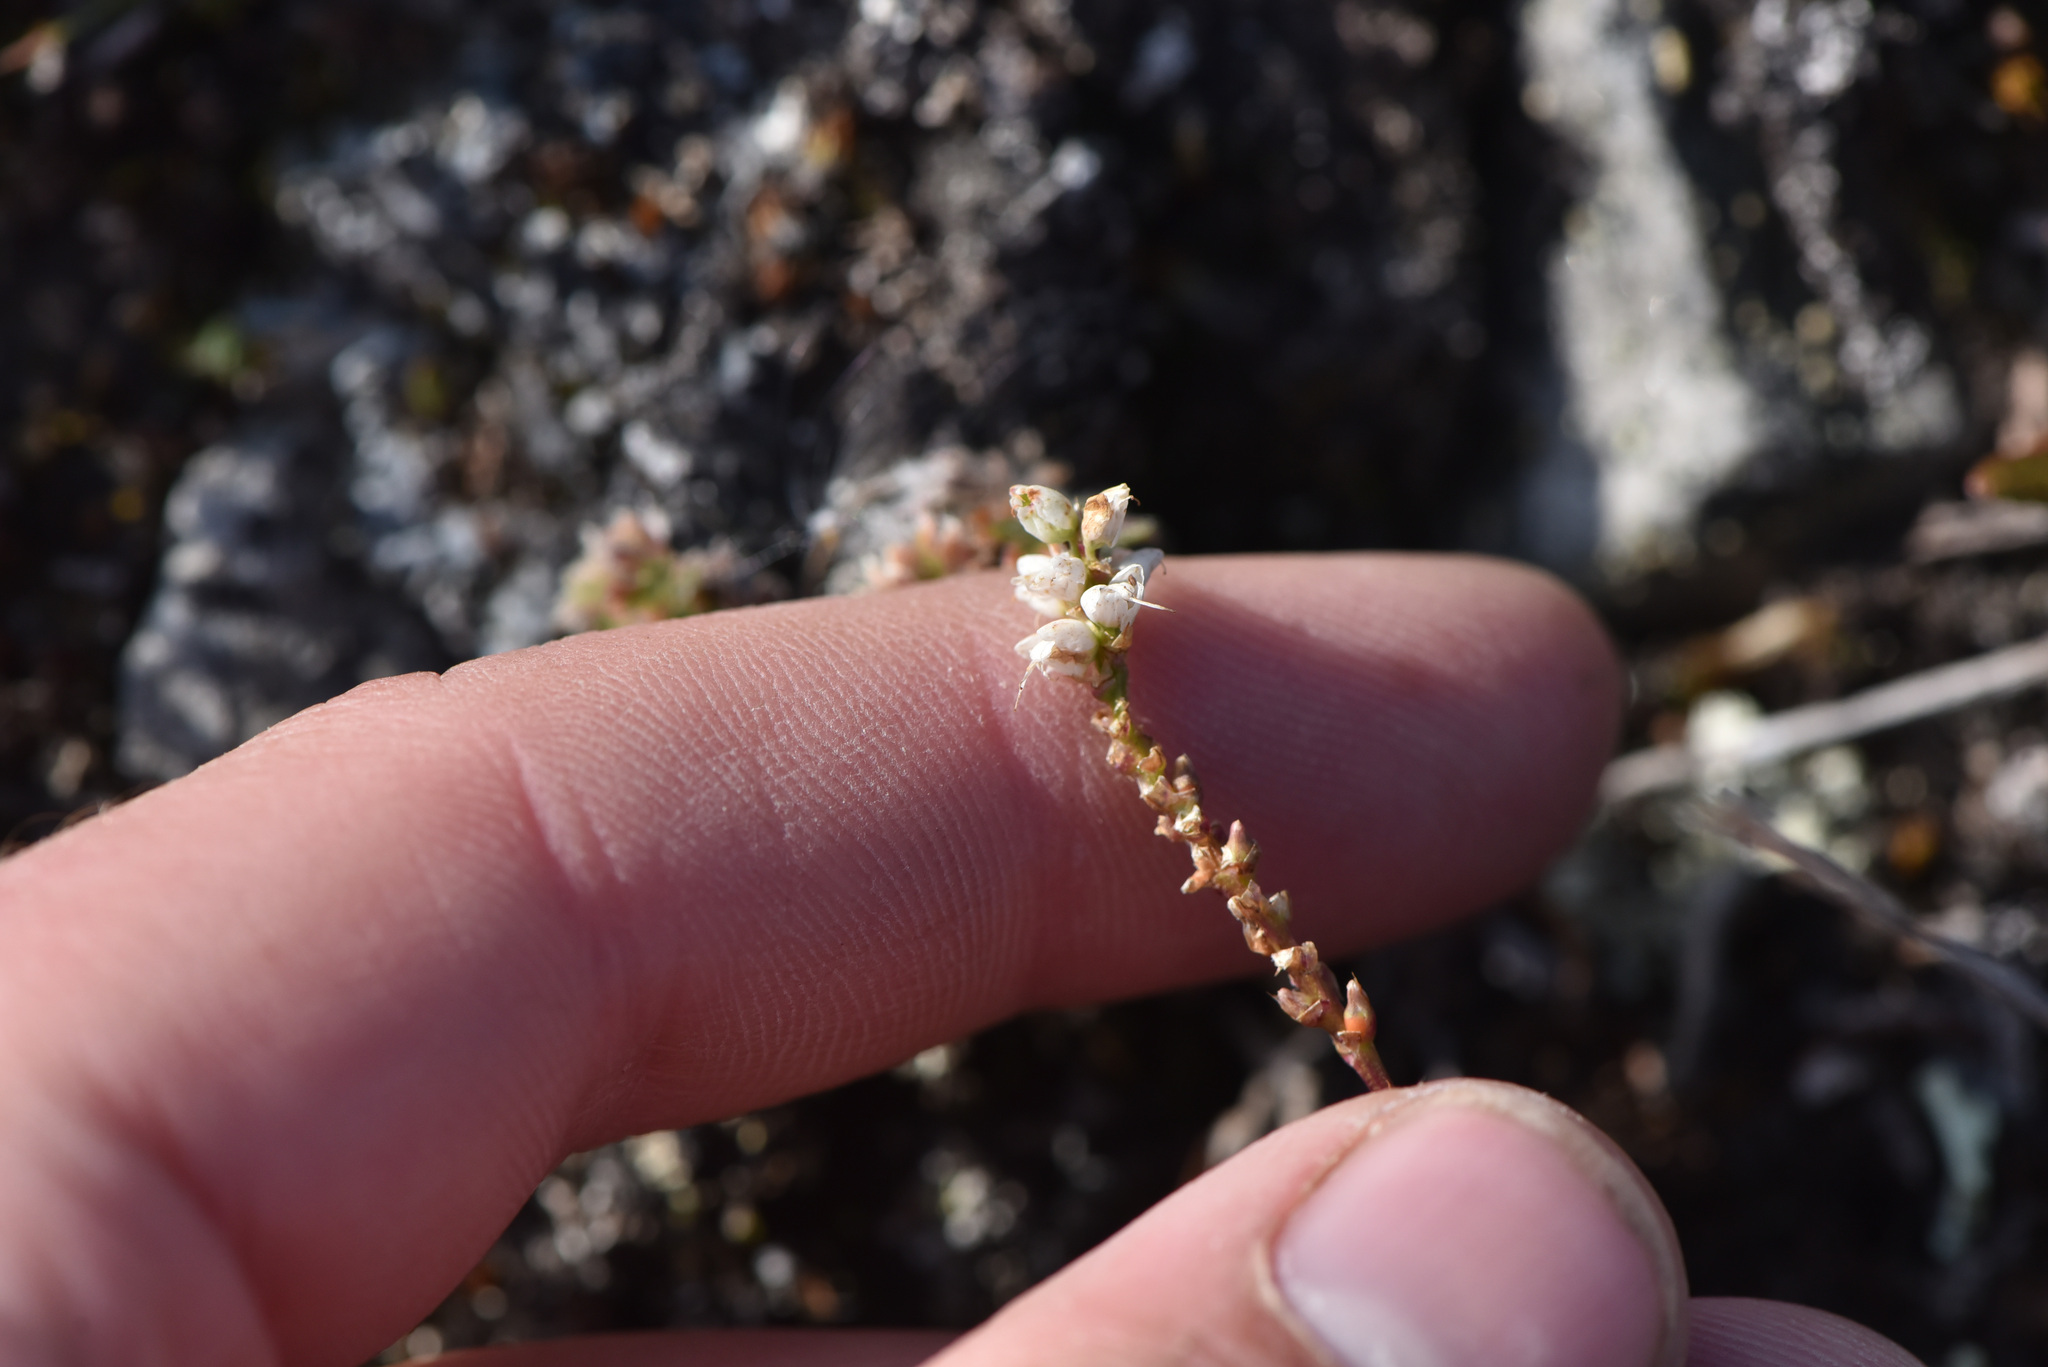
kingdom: Plantae
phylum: Tracheophyta
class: Magnoliopsida
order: Caryophyllales
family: Polygonaceae
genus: Bistorta
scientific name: Bistorta vivipara
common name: Alpine bistort
